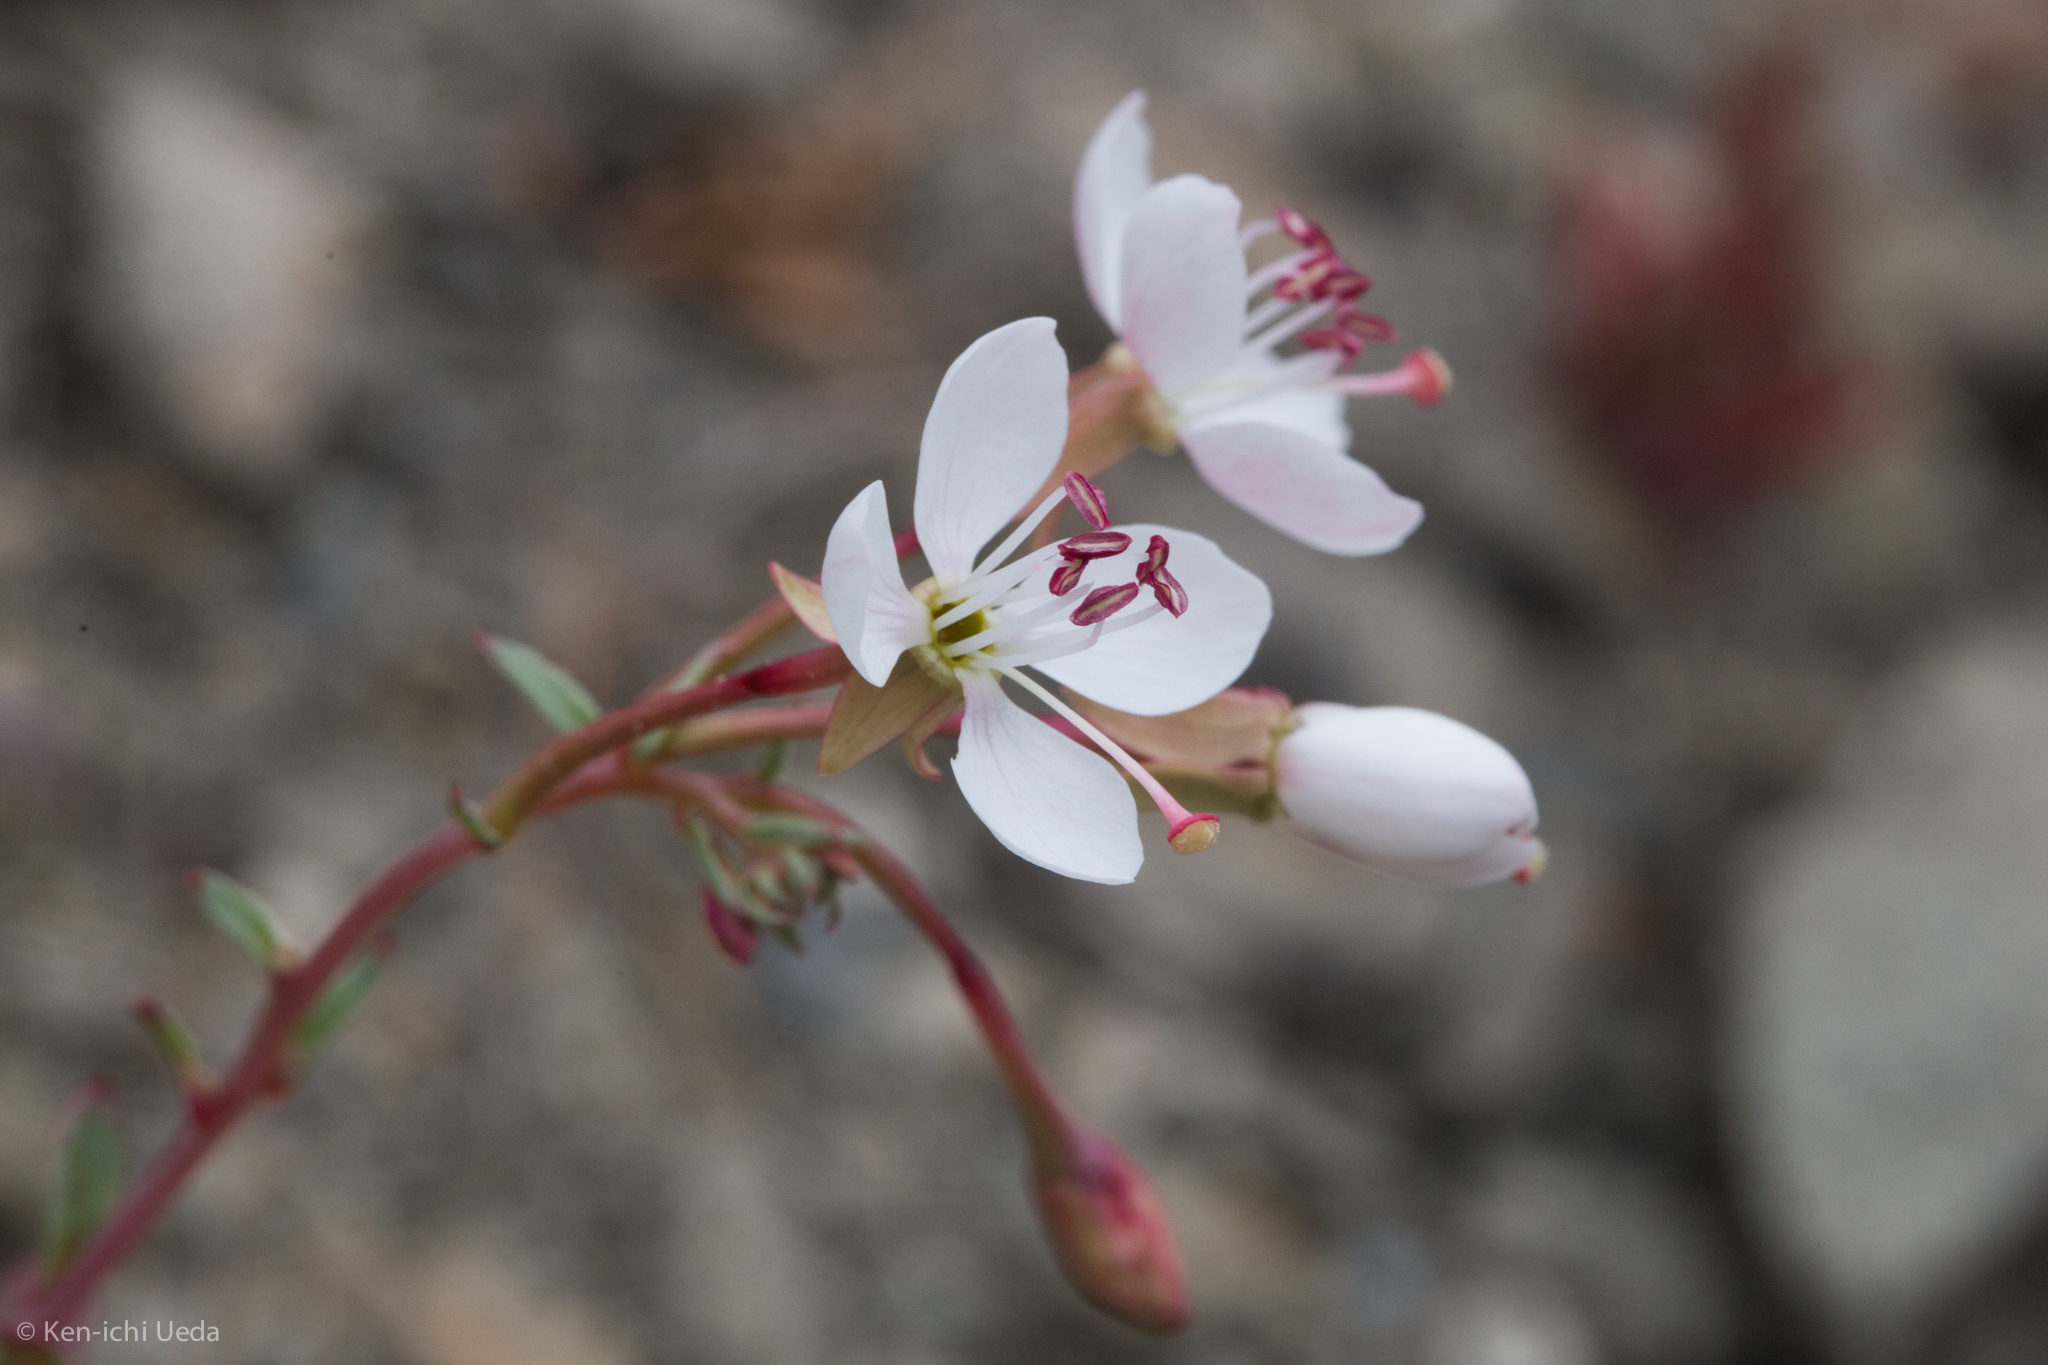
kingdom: Plantae
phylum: Tracheophyta
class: Magnoliopsida
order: Myrtales
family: Onagraceae
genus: Eremothera
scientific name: Eremothera boothii
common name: Booth's evening primrose
